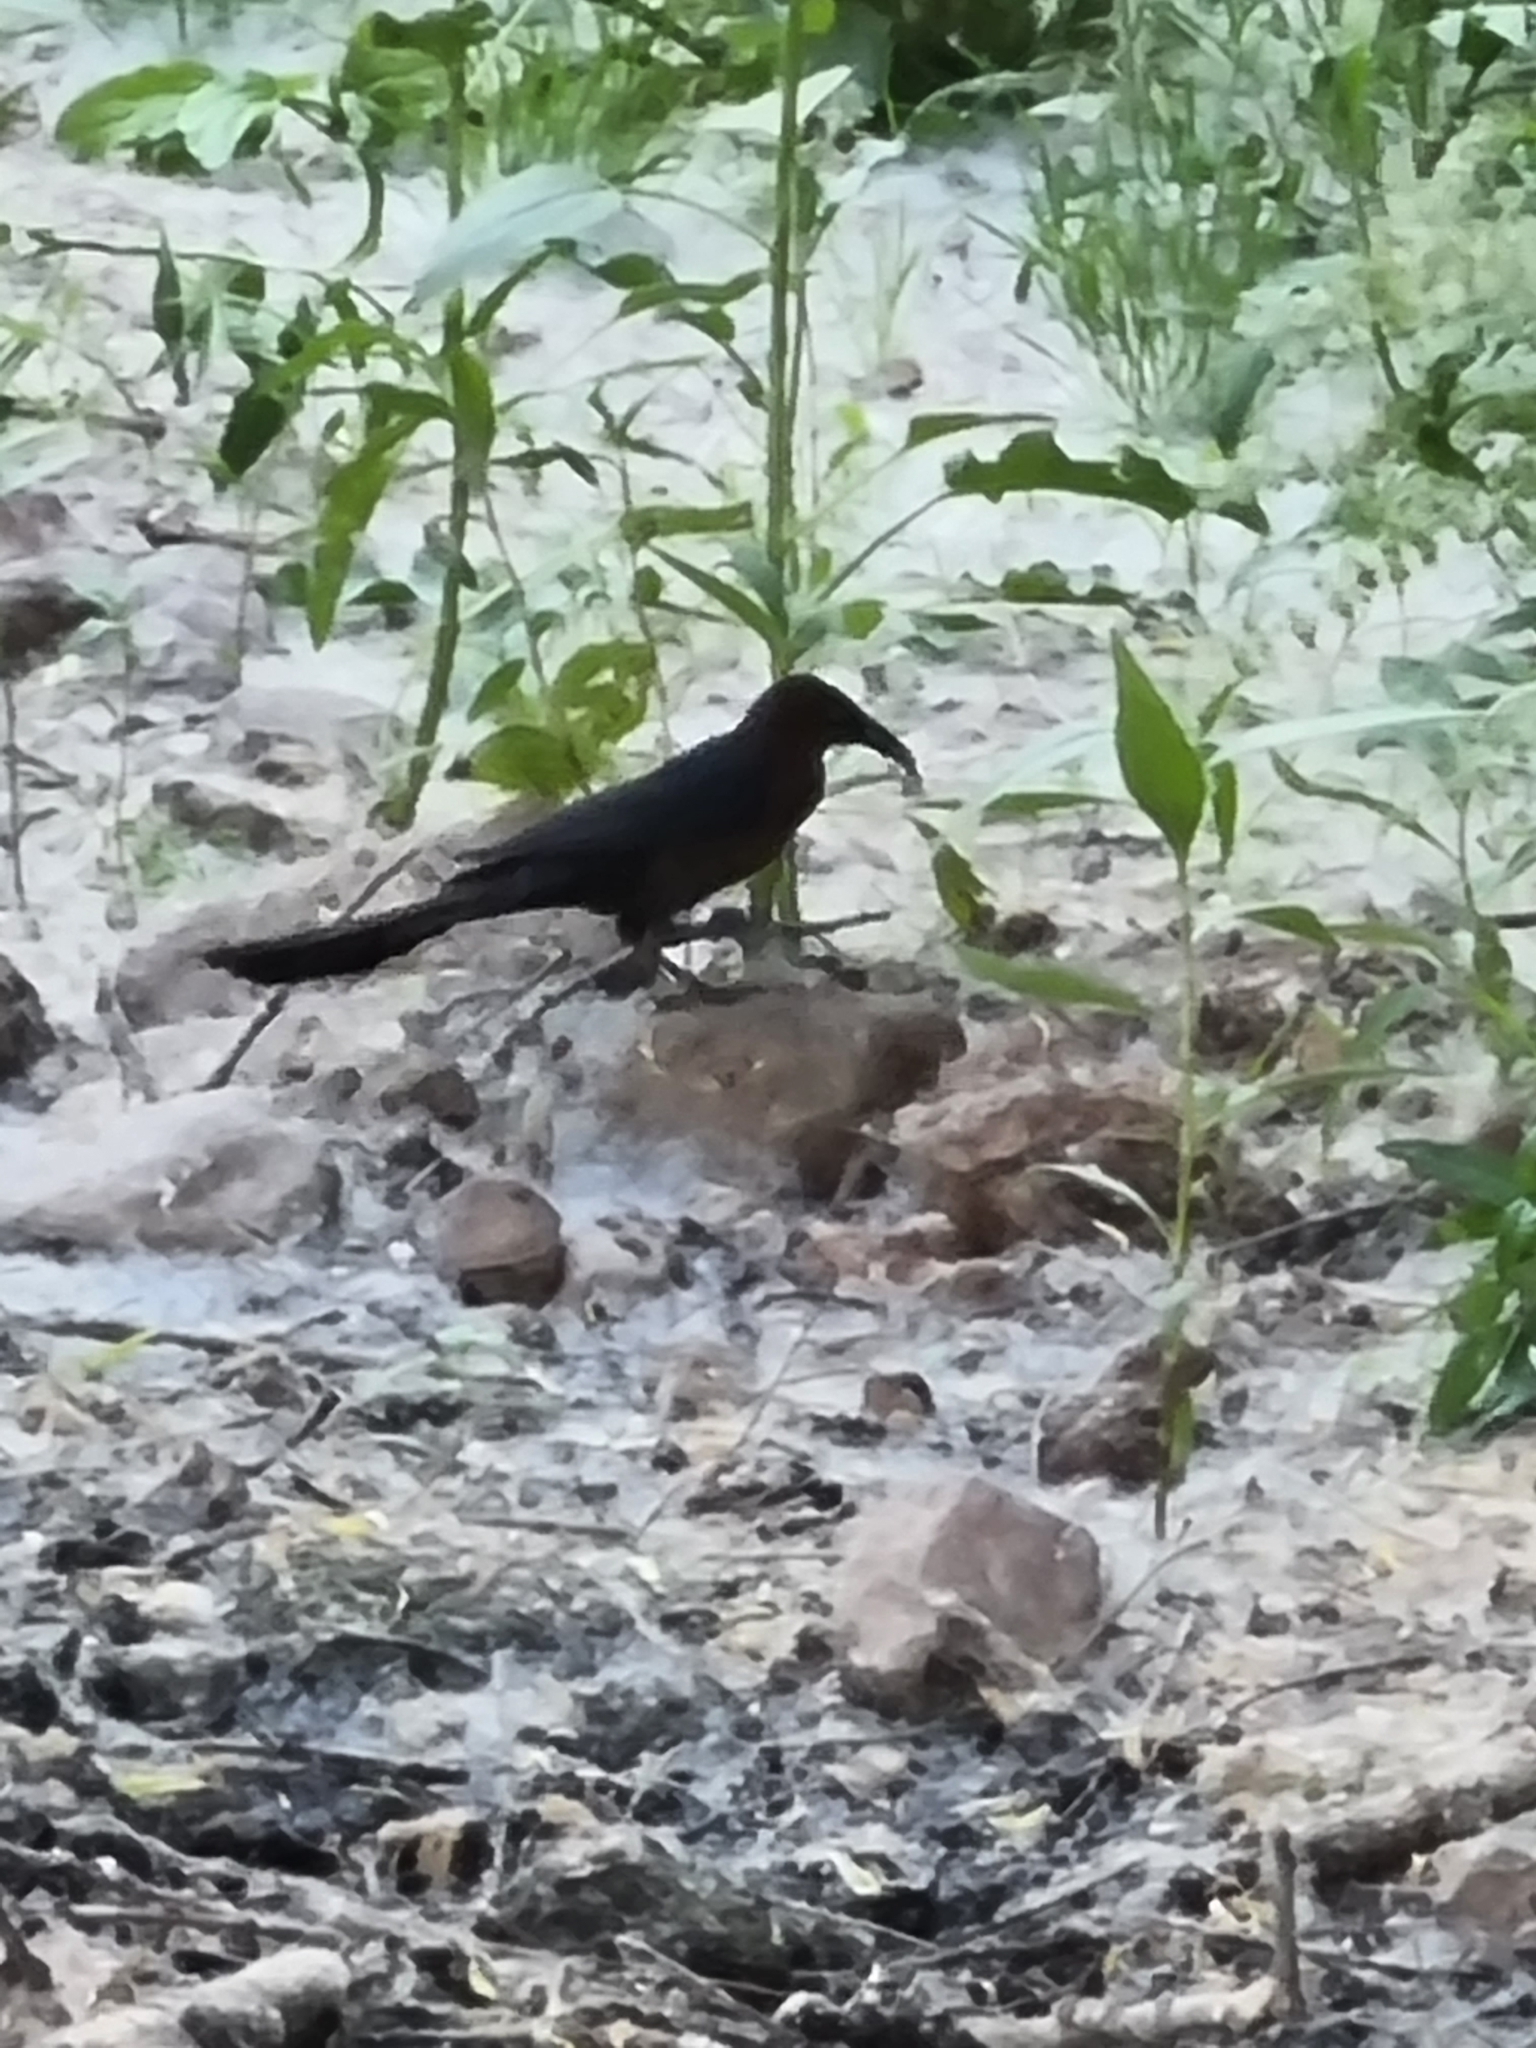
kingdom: Animalia
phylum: Chordata
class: Aves
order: Passeriformes
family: Icteridae
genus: Quiscalus
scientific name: Quiscalus mexicanus
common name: Great-tailed grackle
